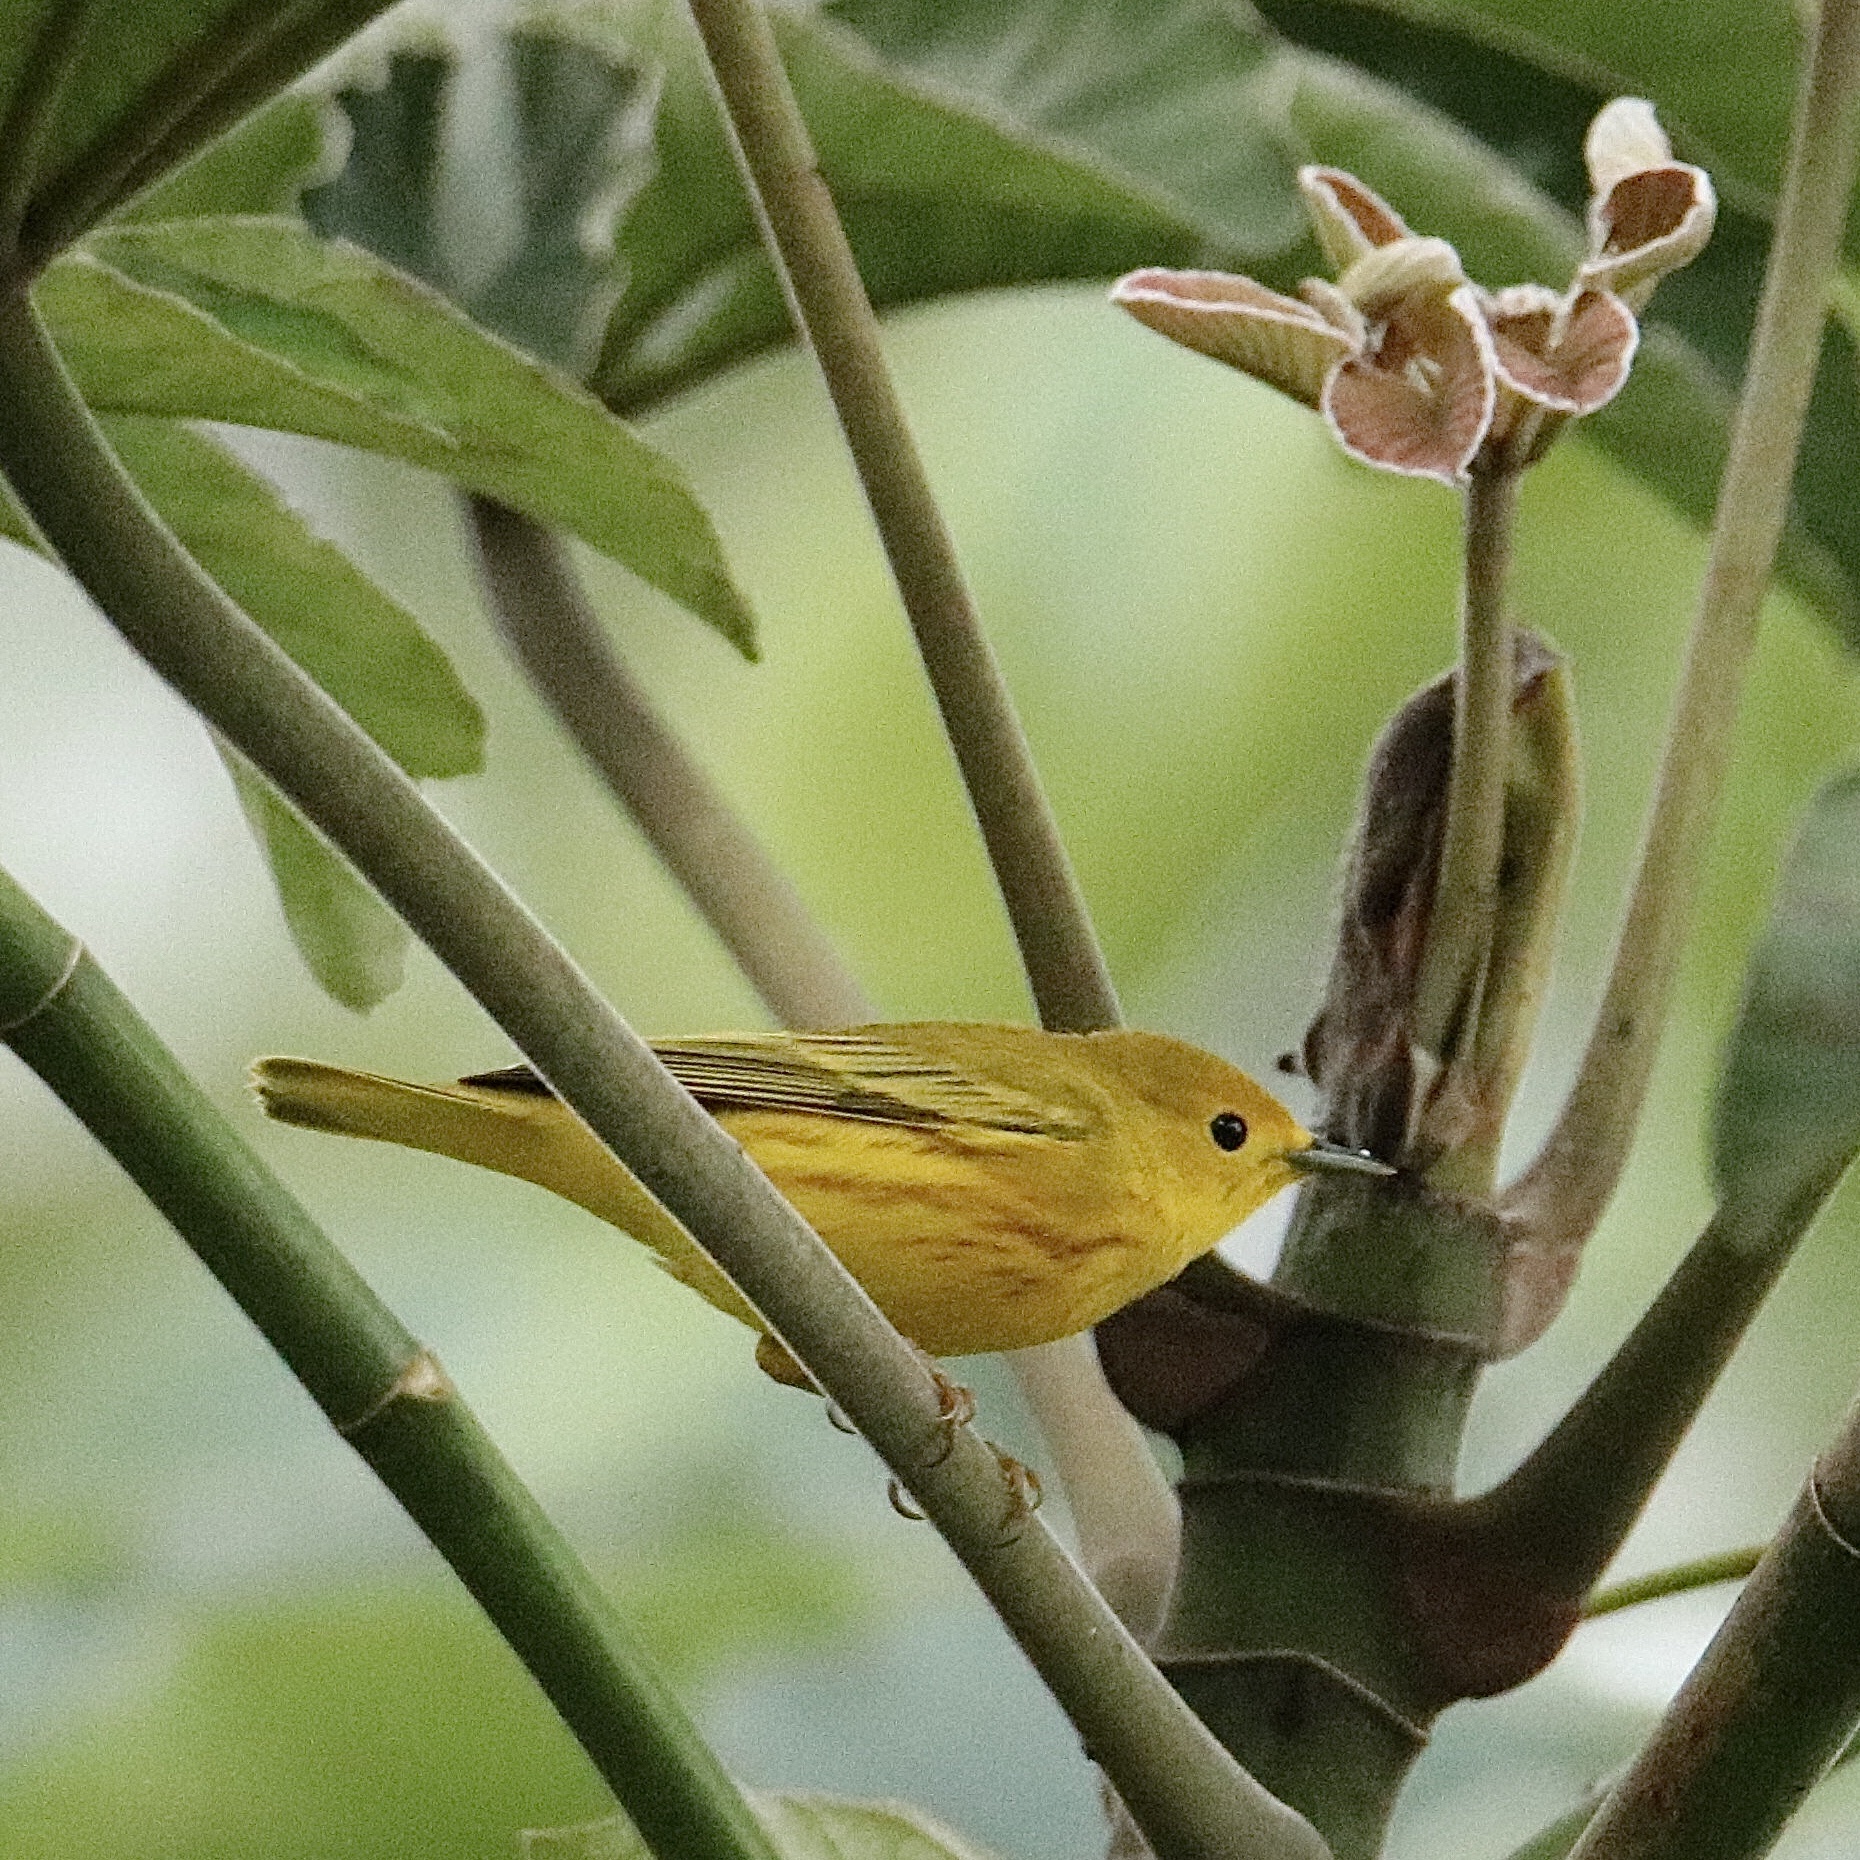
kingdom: Animalia
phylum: Chordata
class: Aves
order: Passeriformes
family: Parulidae
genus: Setophaga
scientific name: Setophaga petechia
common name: Yellow warbler
